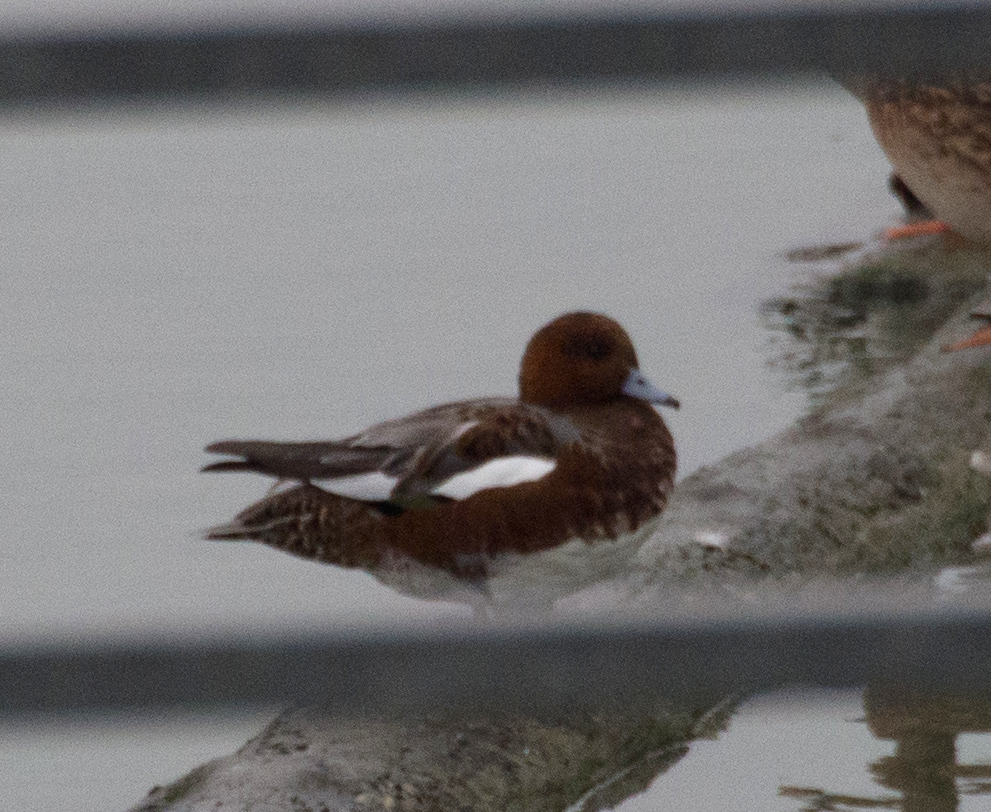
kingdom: Animalia
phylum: Chordata
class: Aves
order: Anseriformes
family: Anatidae
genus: Mareca
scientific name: Mareca penelope
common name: Eurasian wigeon
